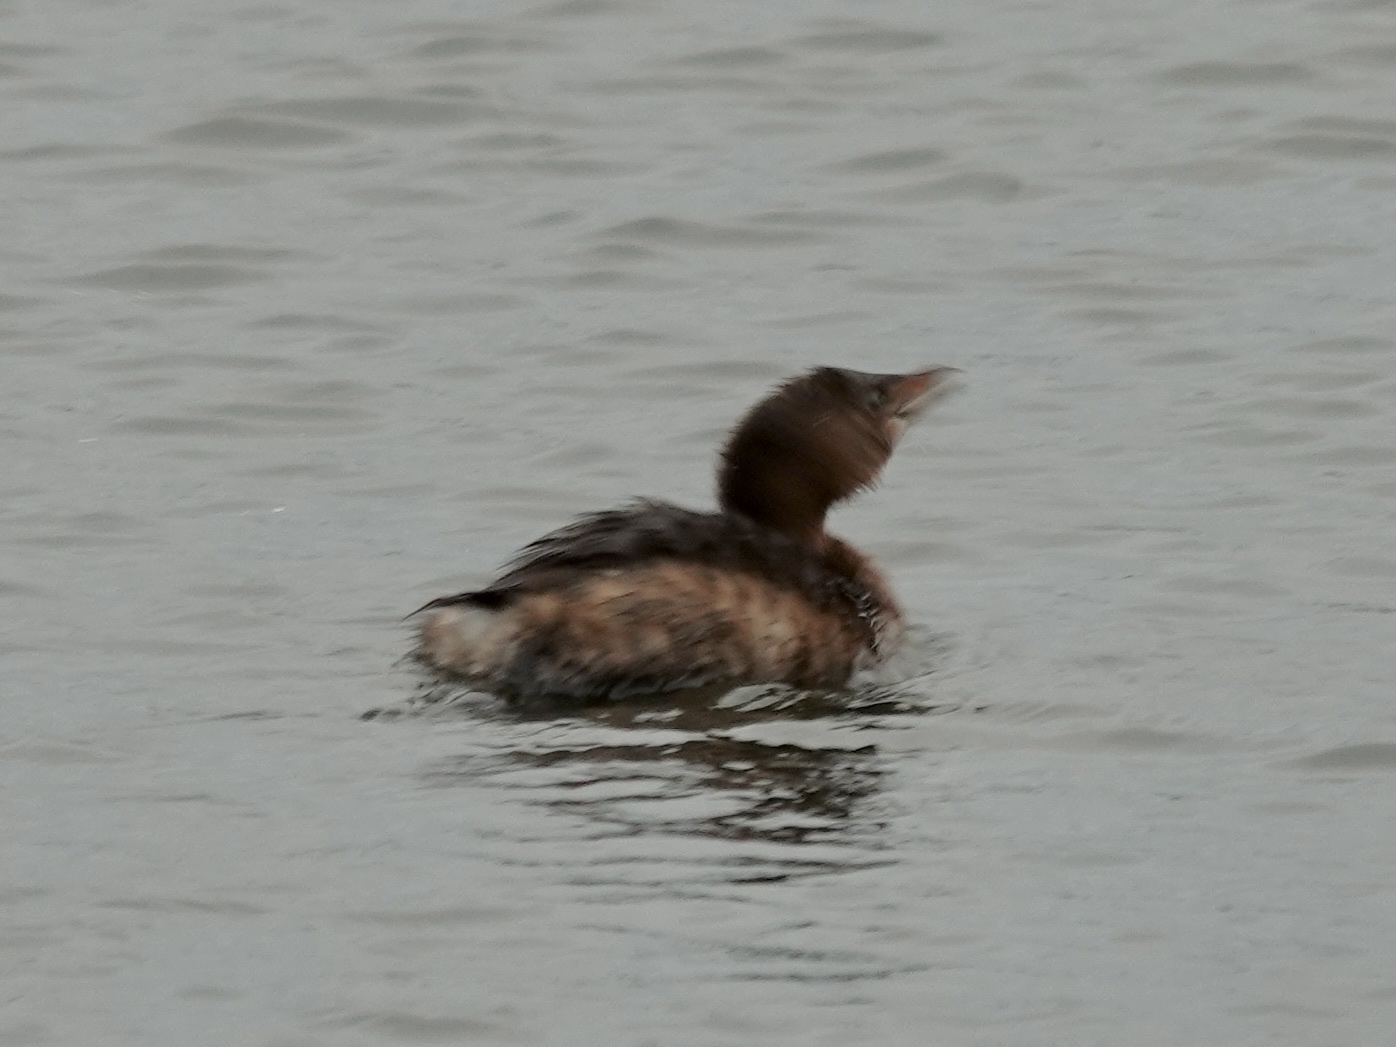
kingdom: Animalia
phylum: Chordata
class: Aves
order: Podicipediformes
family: Podicipedidae
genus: Podilymbus
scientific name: Podilymbus podiceps
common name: Pied-billed grebe
